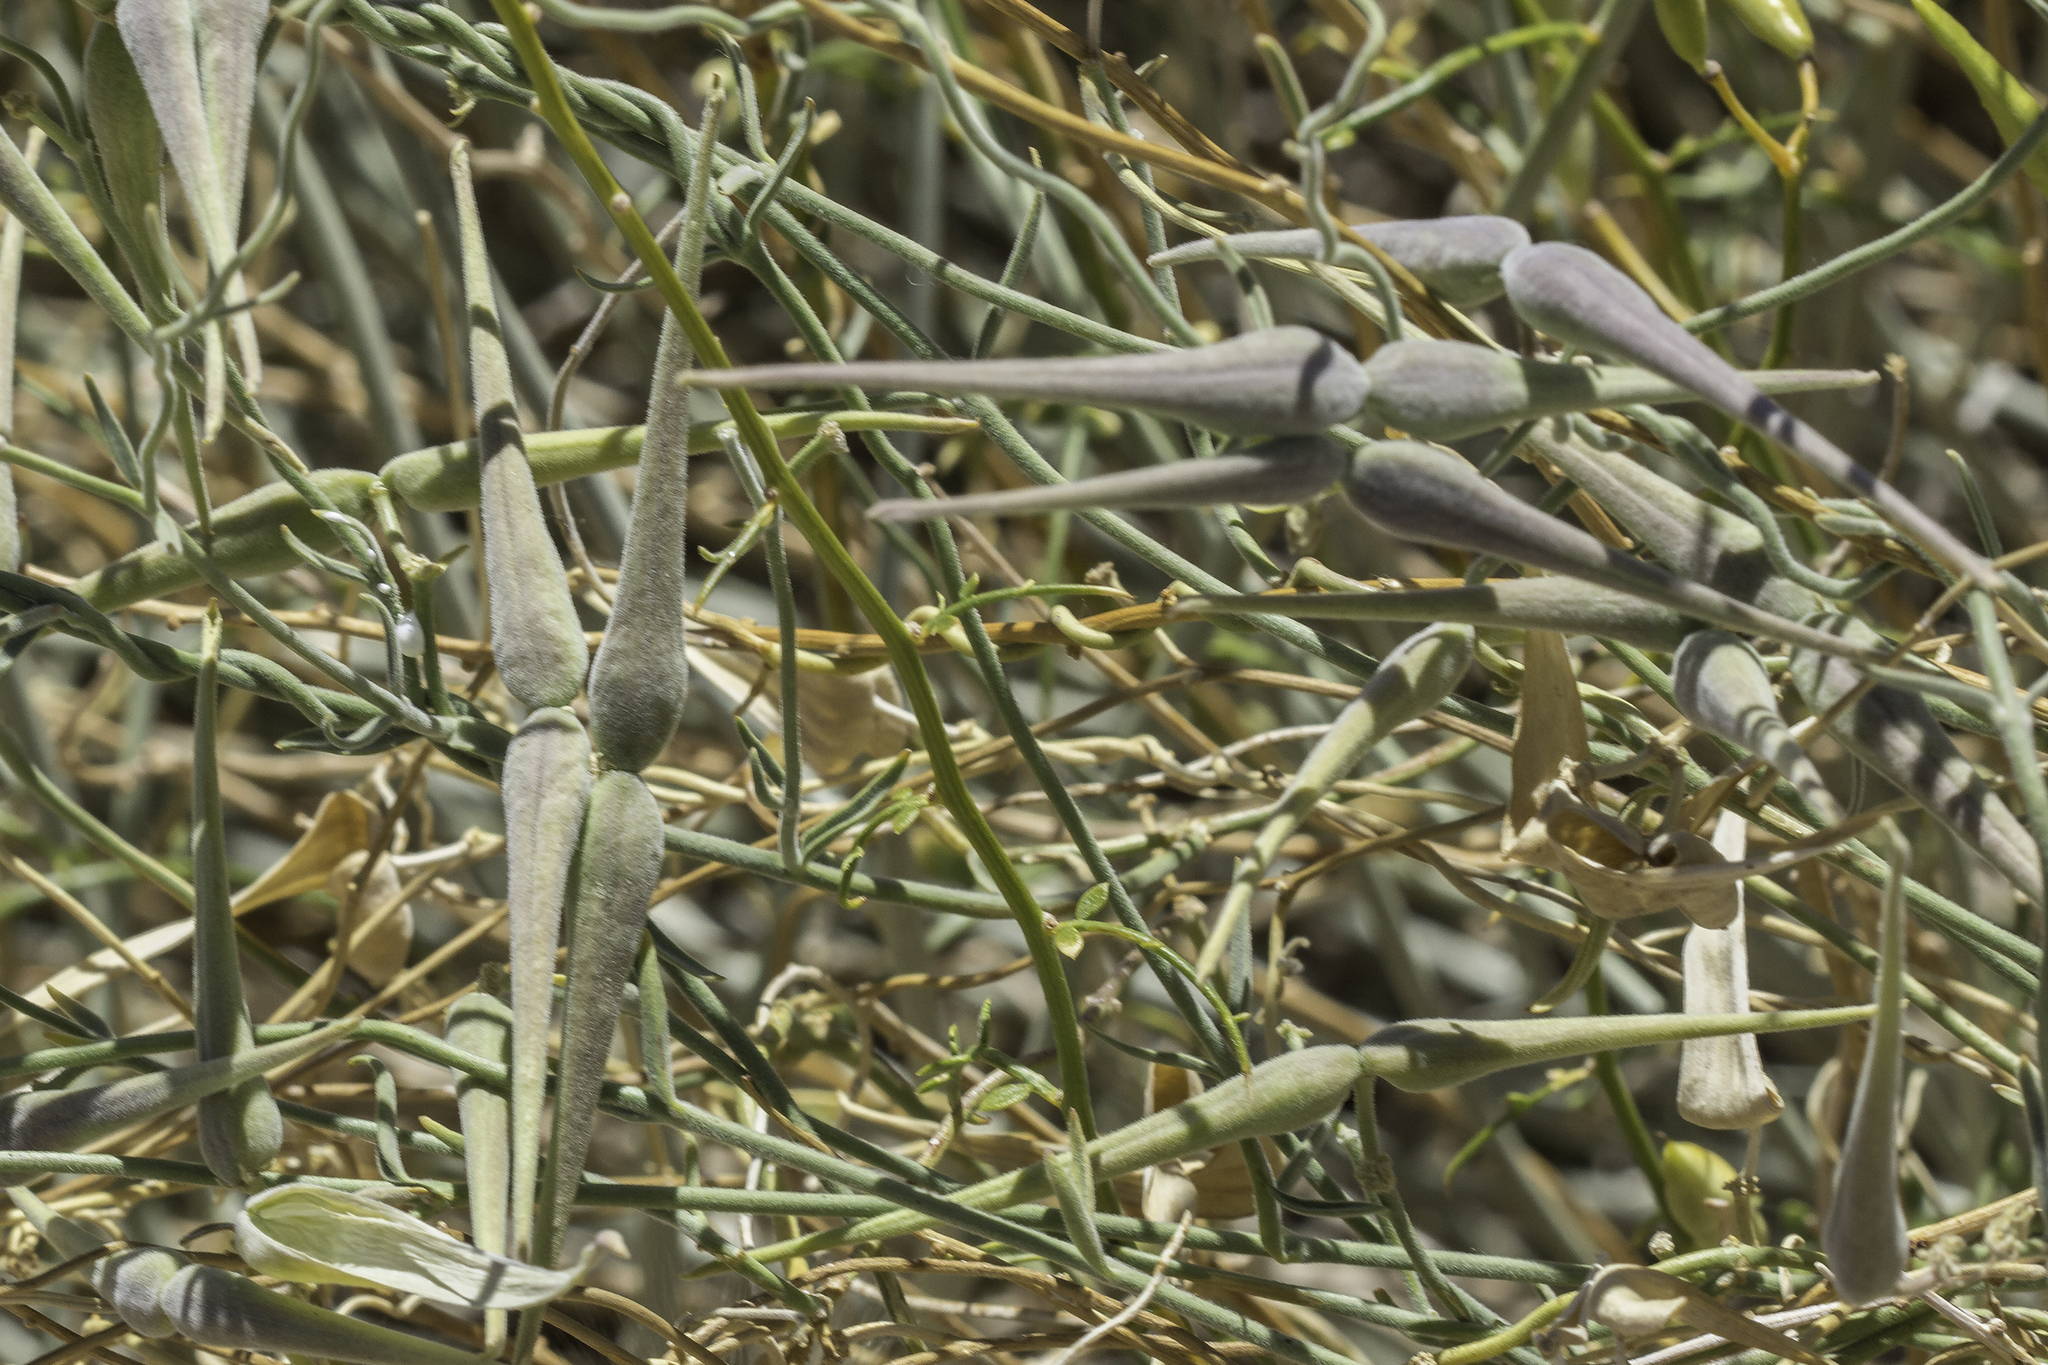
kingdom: Plantae
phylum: Tracheophyta
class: Magnoliopsida
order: Gentianales
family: Apocynaceae
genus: Funastrum
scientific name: Funastrum hirtellum
